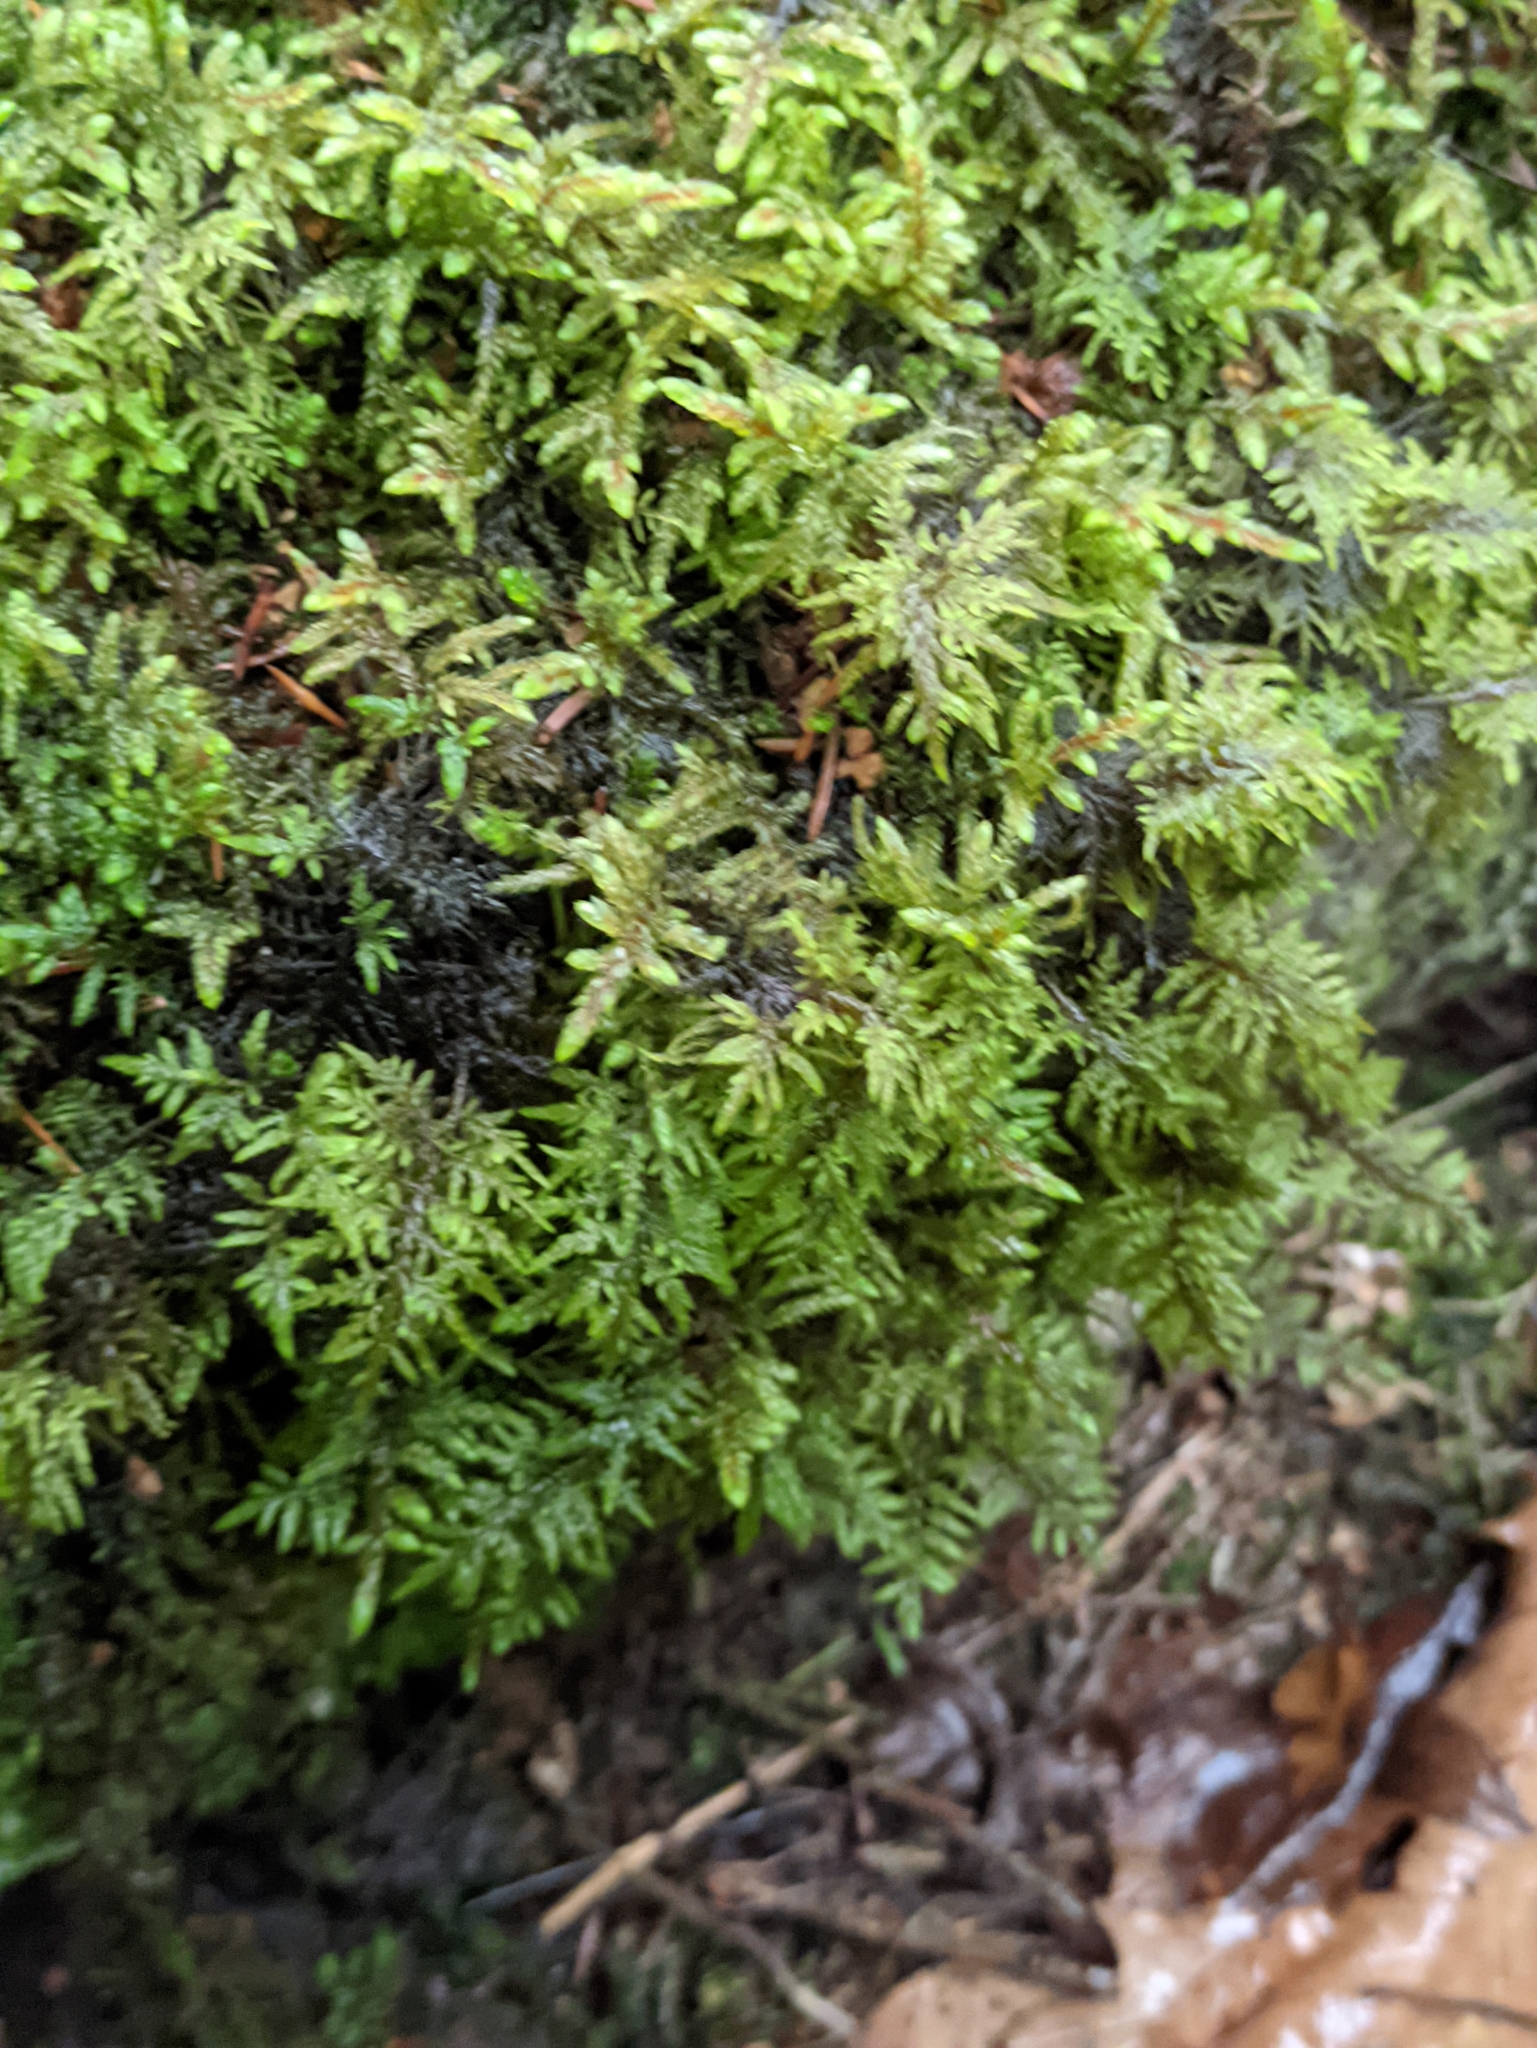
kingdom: Plantae
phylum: Bryophyta
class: Bryopsida
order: Hypnales
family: Hylocomiaceae
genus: Hylocomium
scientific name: Hylocomium splendens
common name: Stairstep moss
